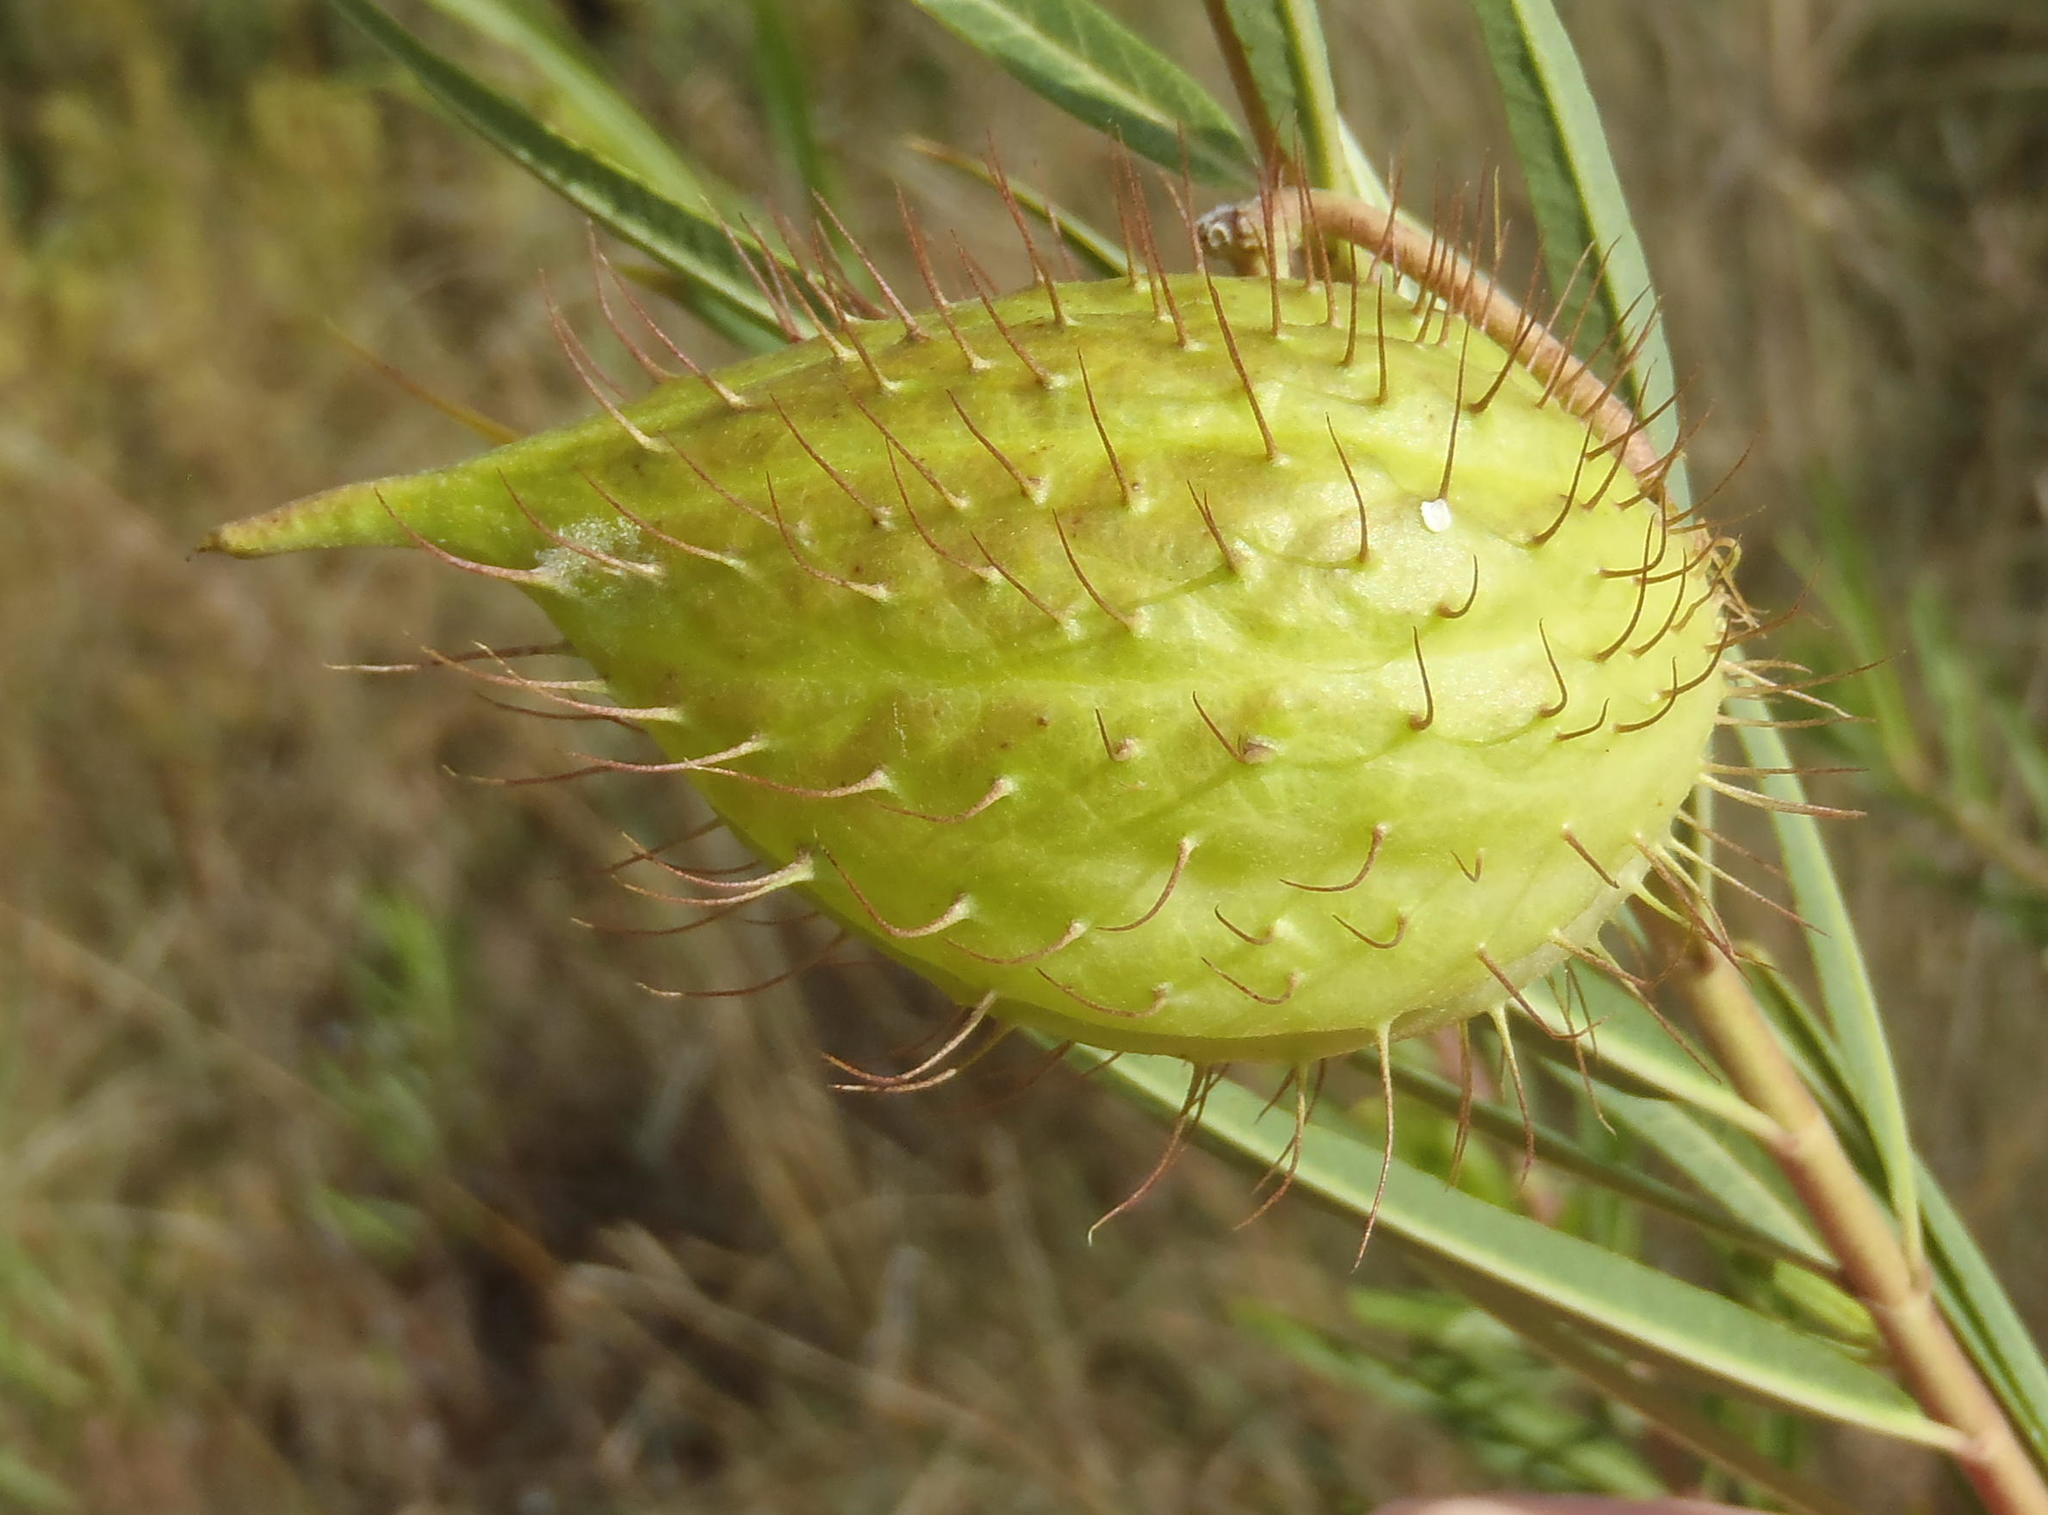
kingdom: Plantae
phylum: Tracheophyta
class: Magnoliopsida
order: Gentianales
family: Apocynaceae
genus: Gomphocarpus
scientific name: Gomphocarpus fruticosus
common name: Milkweed
